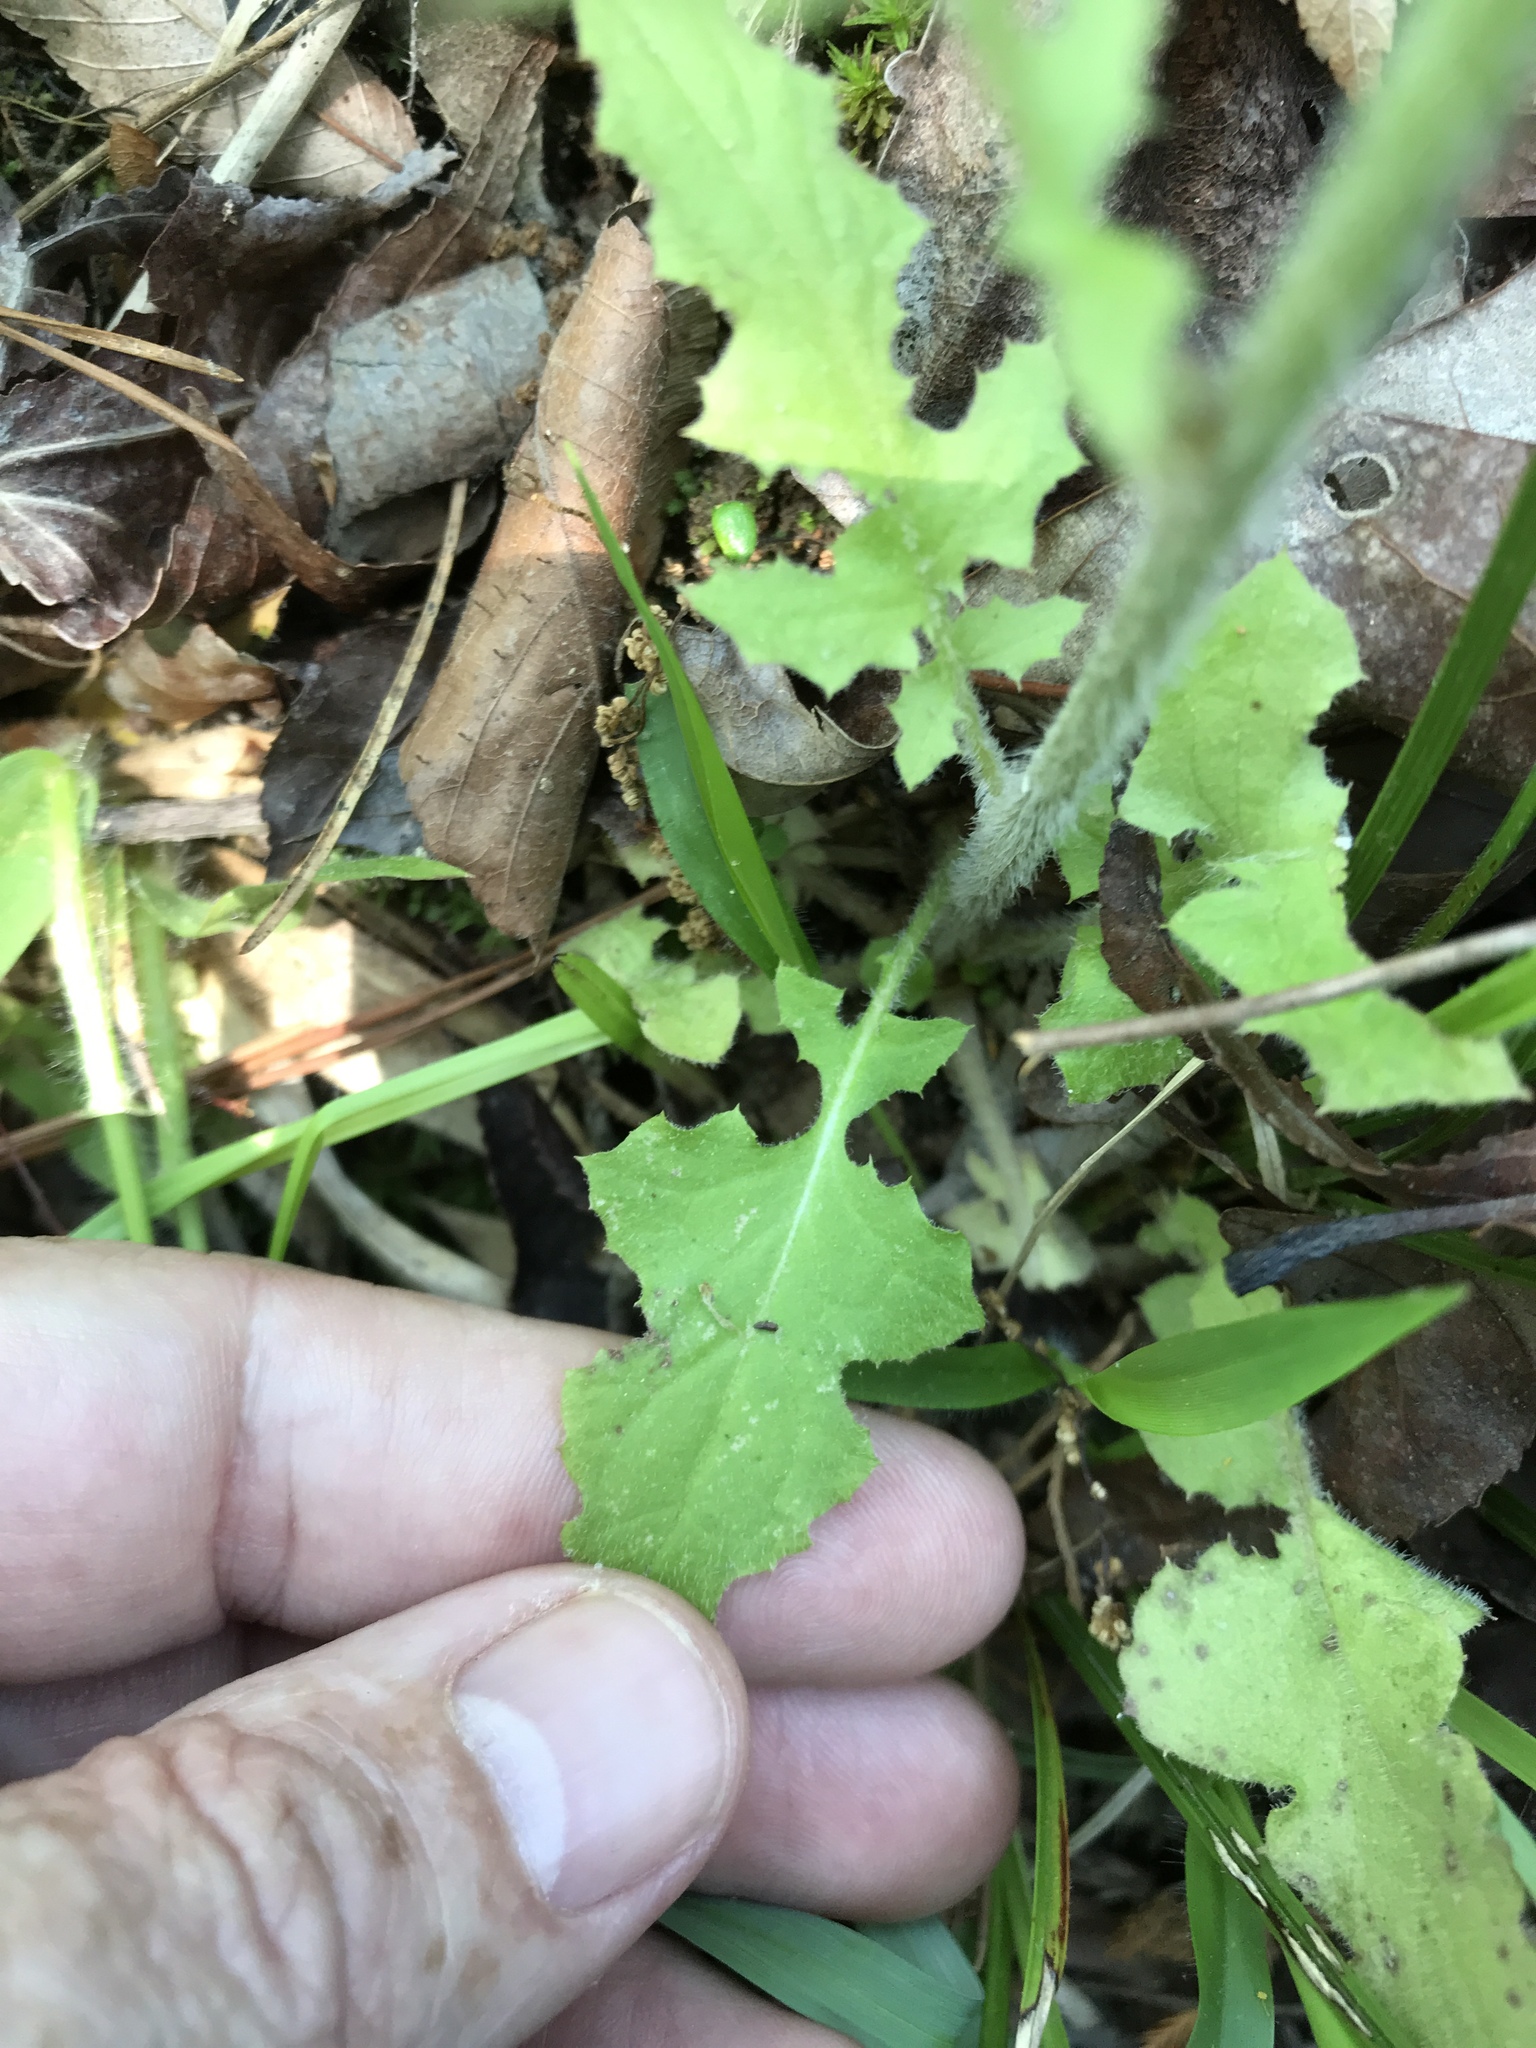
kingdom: Plantae
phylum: Tracheophyta
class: Magnoliopsida
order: Asterales
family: Asteraceae
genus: Youngia
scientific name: Youngia japonica
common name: Oriental false hawksbeard
